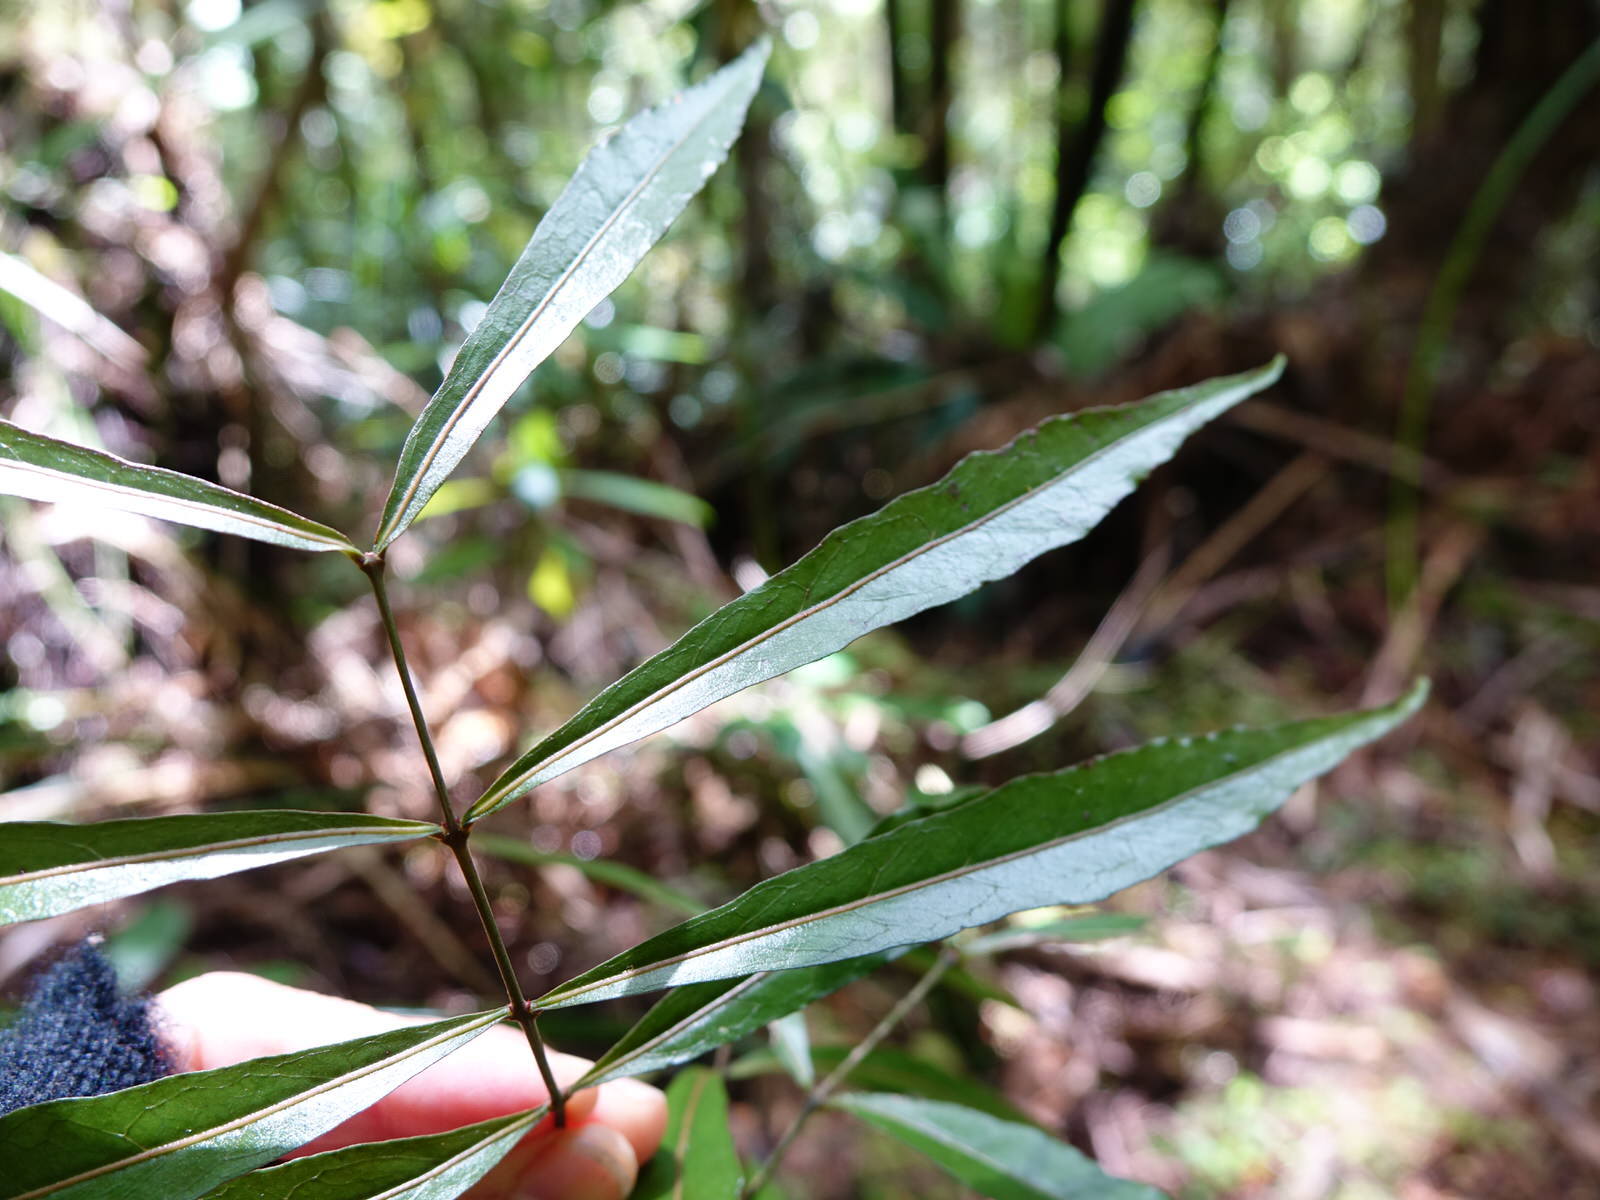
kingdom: Plantae
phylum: Tracheophyta
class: Magnoliopsida
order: Santalales
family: Nanodeaceae
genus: Mida
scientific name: Mida salicifolia
